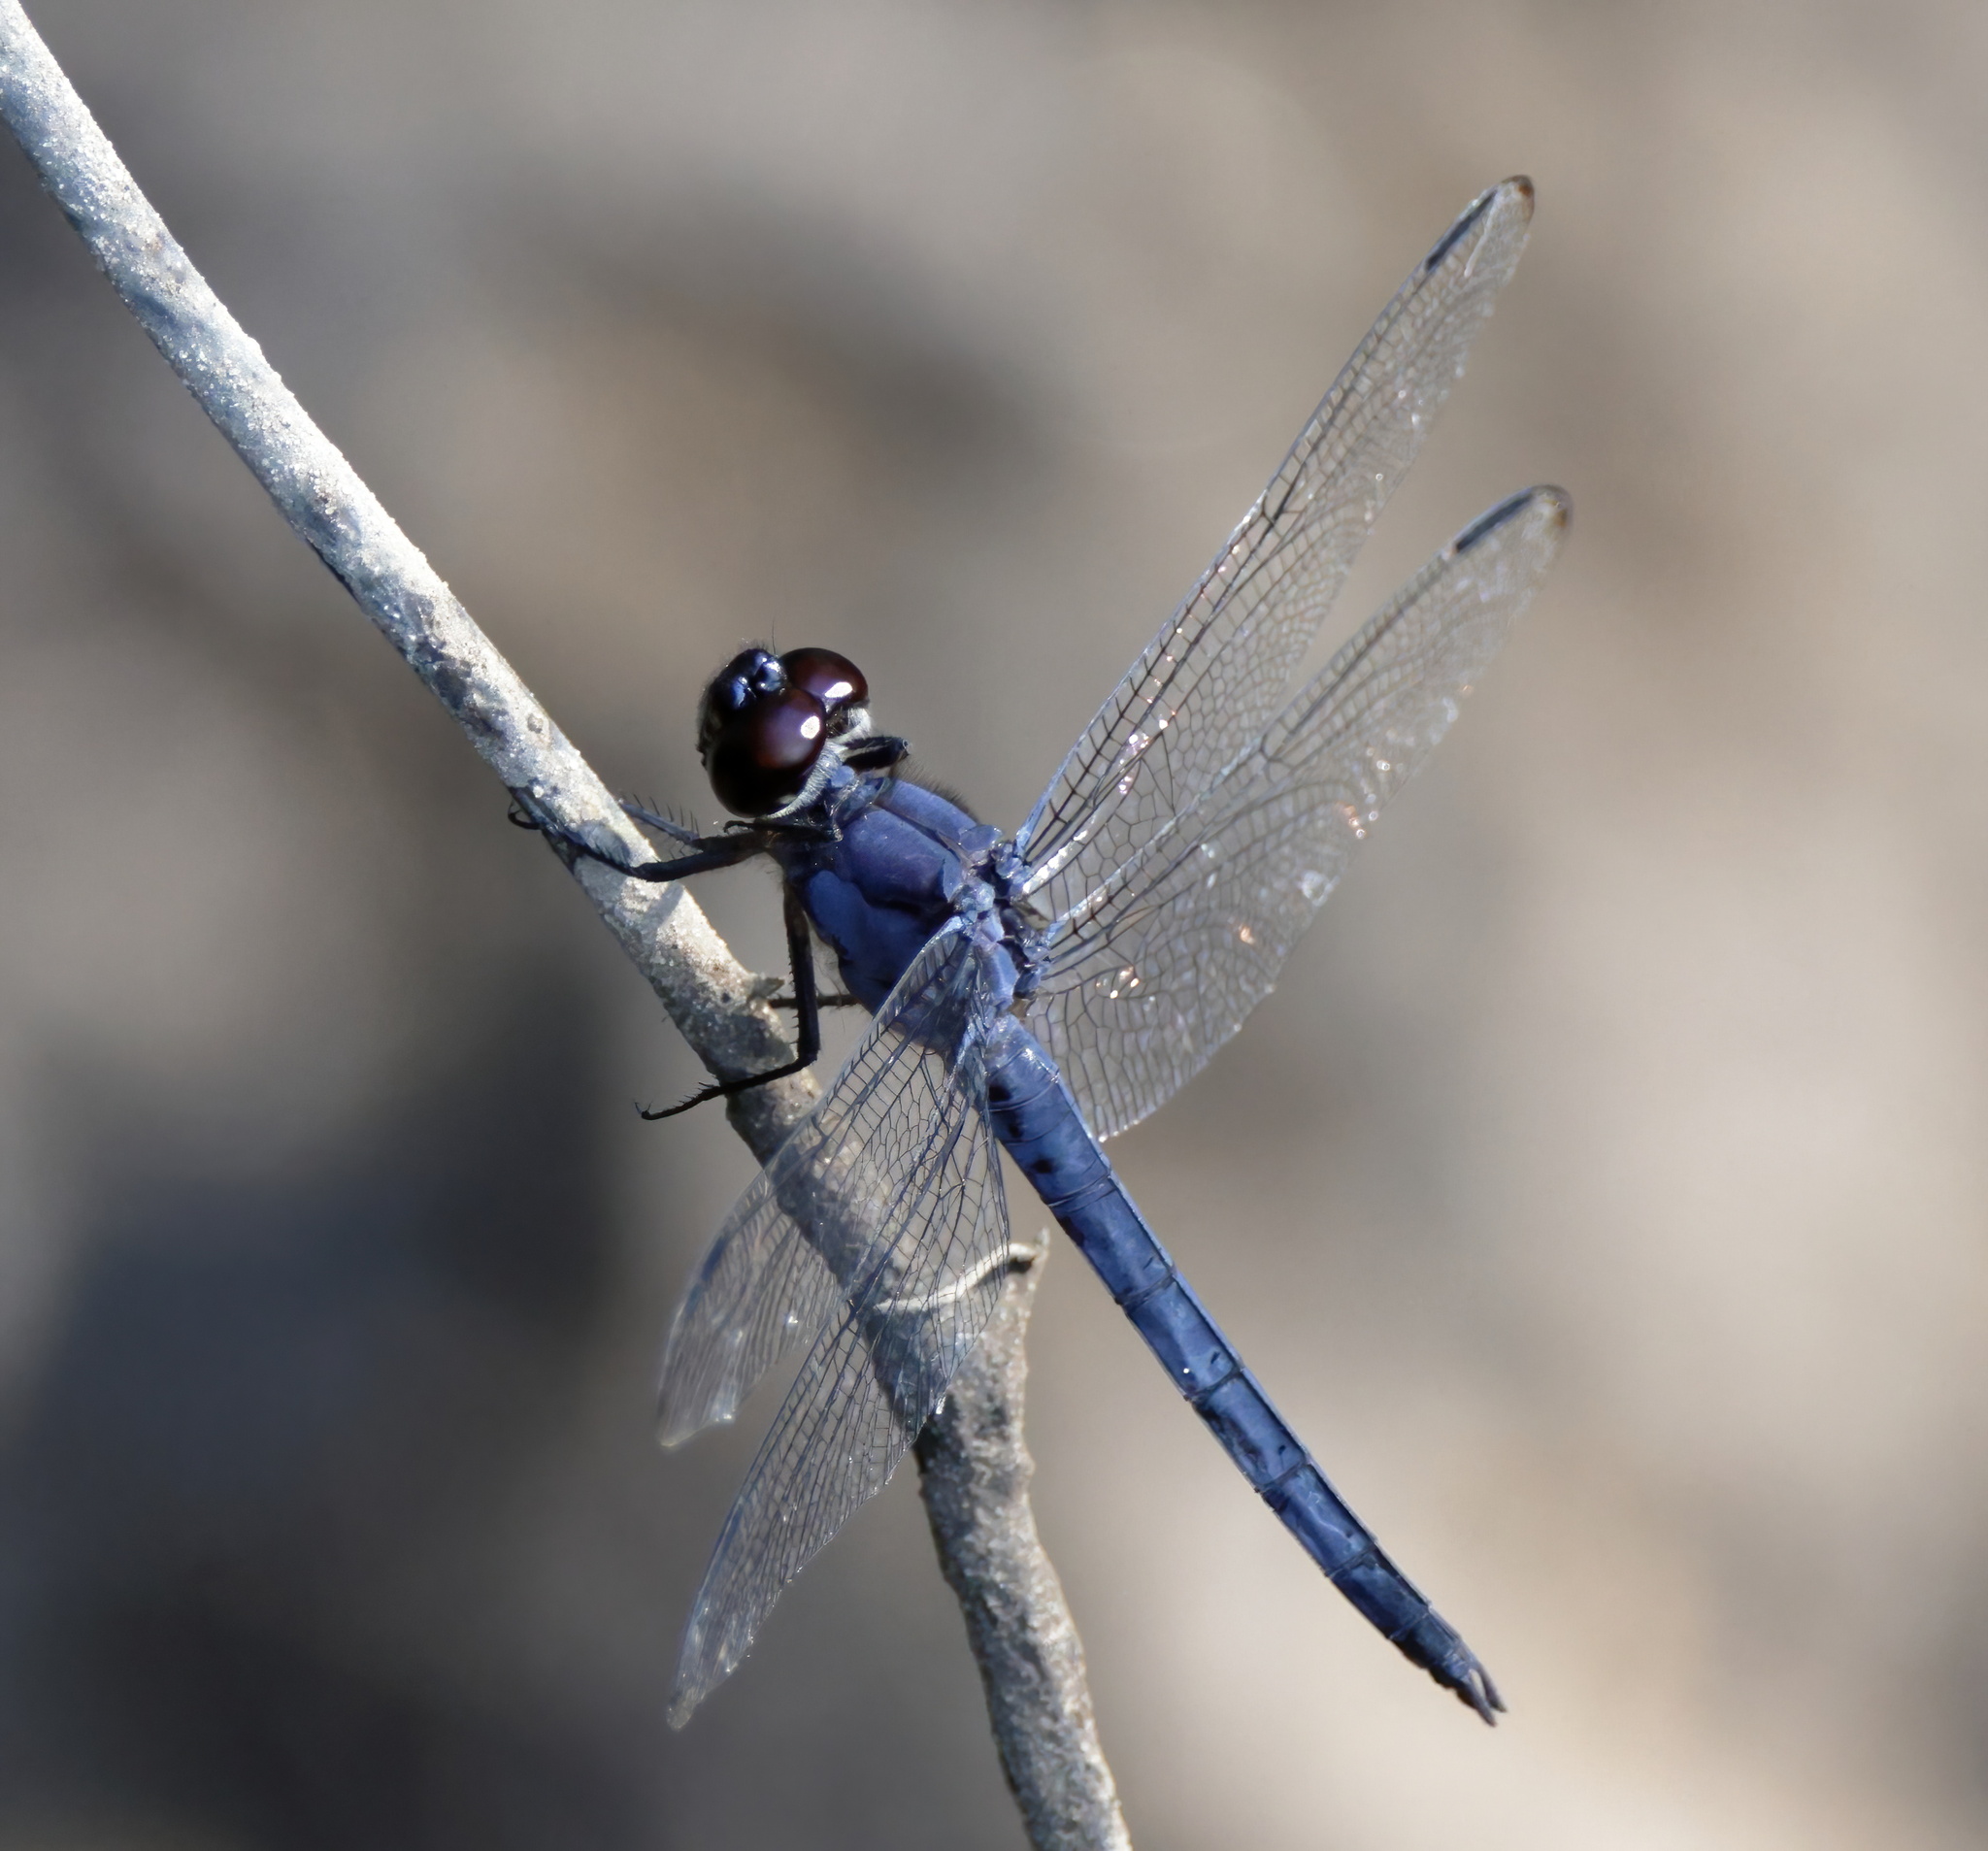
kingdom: Animalia
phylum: Arthropoda
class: Insecta
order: Odonata
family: Libellulidae
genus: Libellula
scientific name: Libellula incesta
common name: Slaty skimmer
